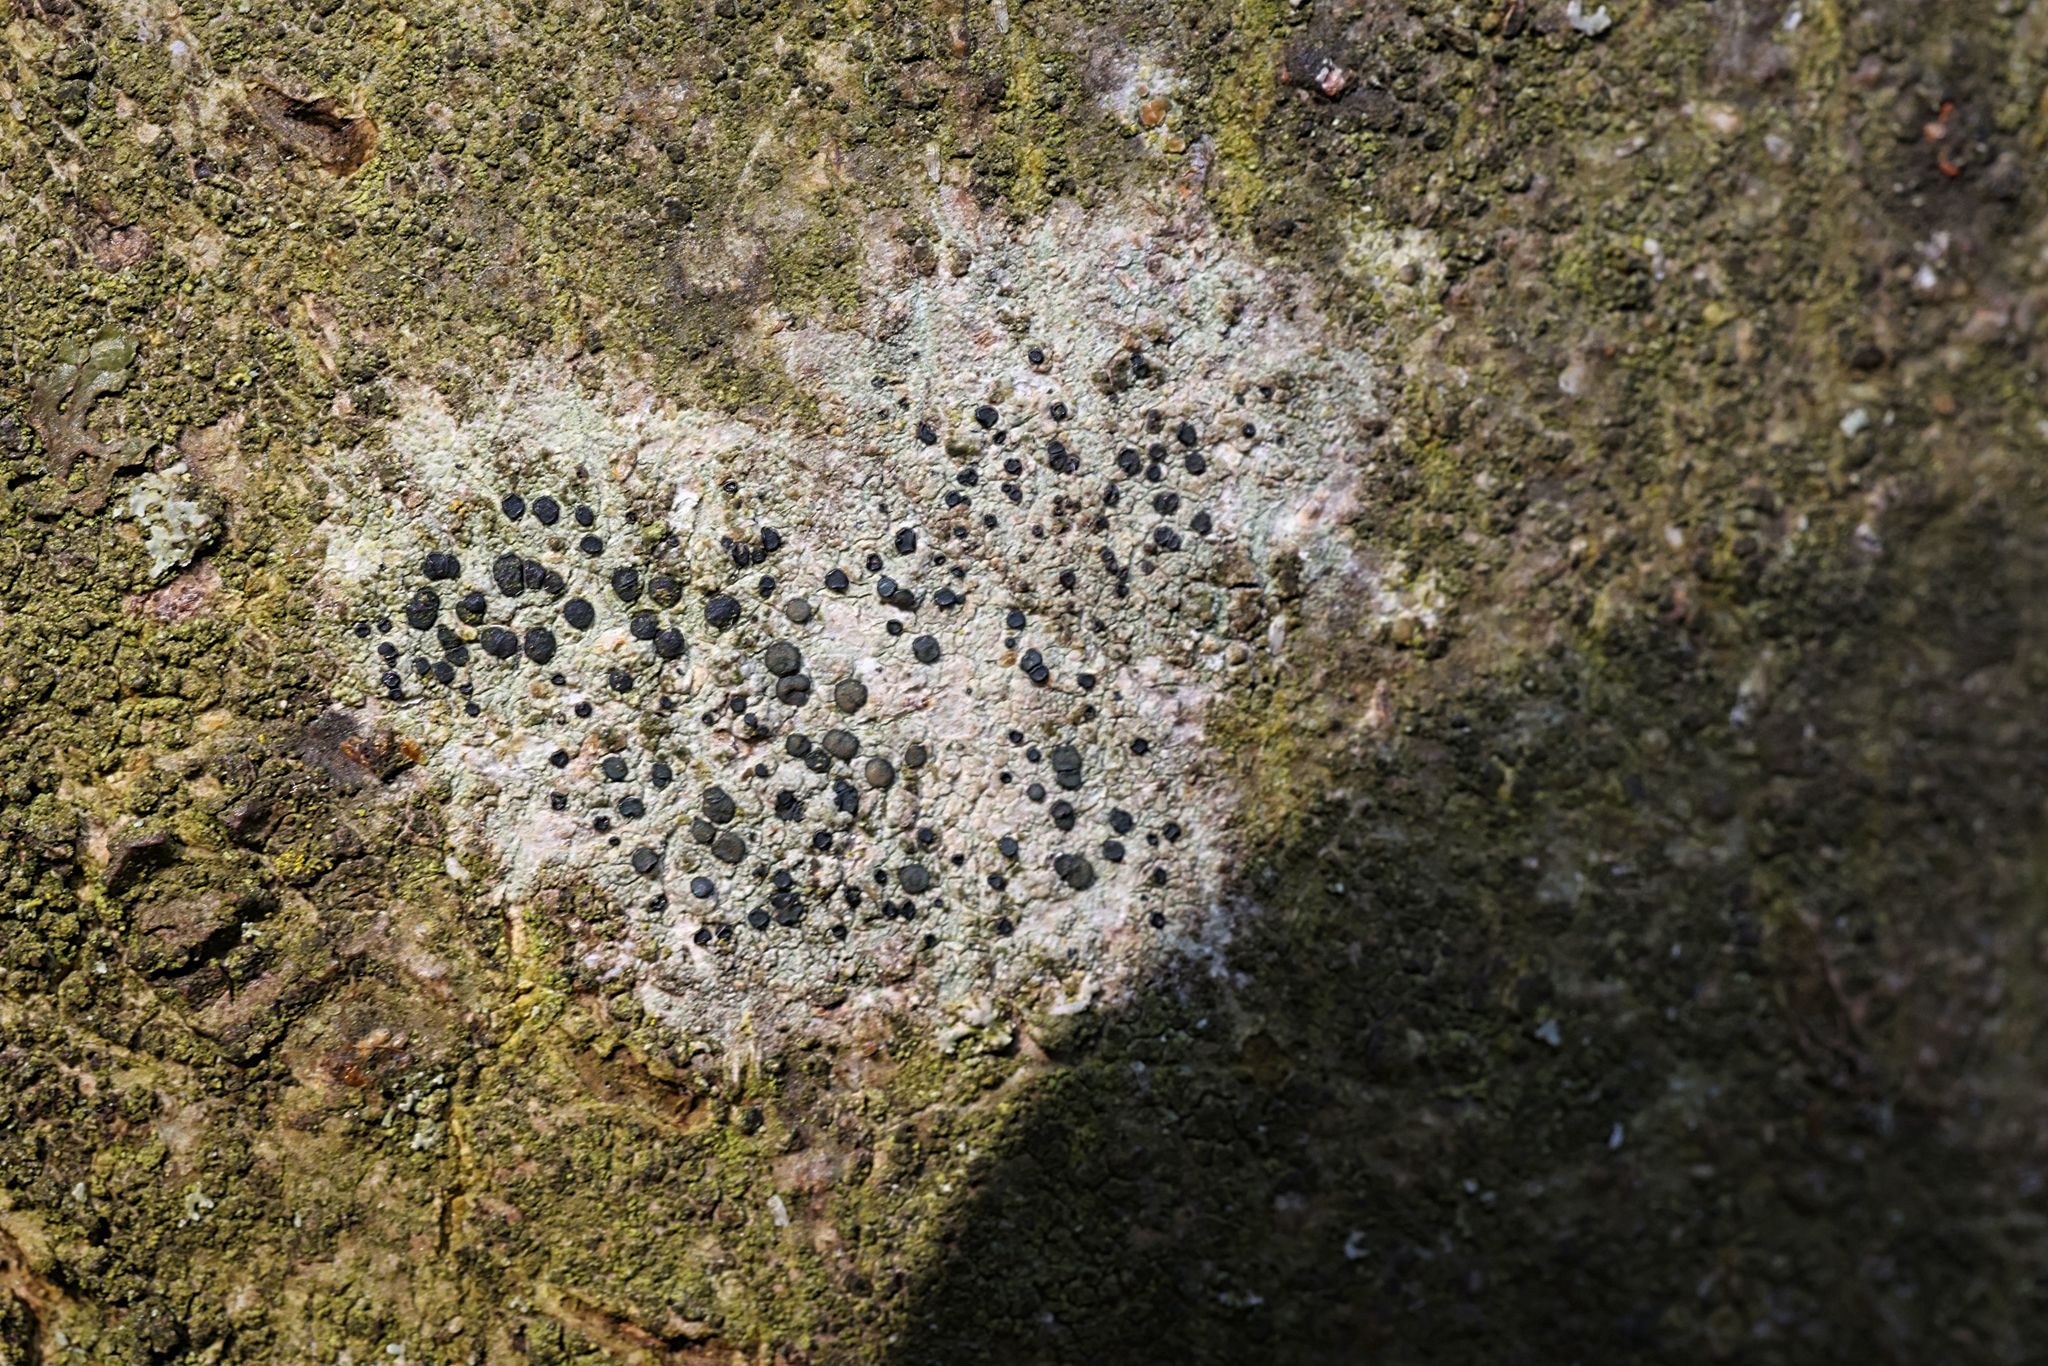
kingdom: Fungi
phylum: Ascomycota
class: Lecanoromycetes
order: Lecanorales
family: Lecanoraceae
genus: Lecidella
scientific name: Lecidella elaeochroma
